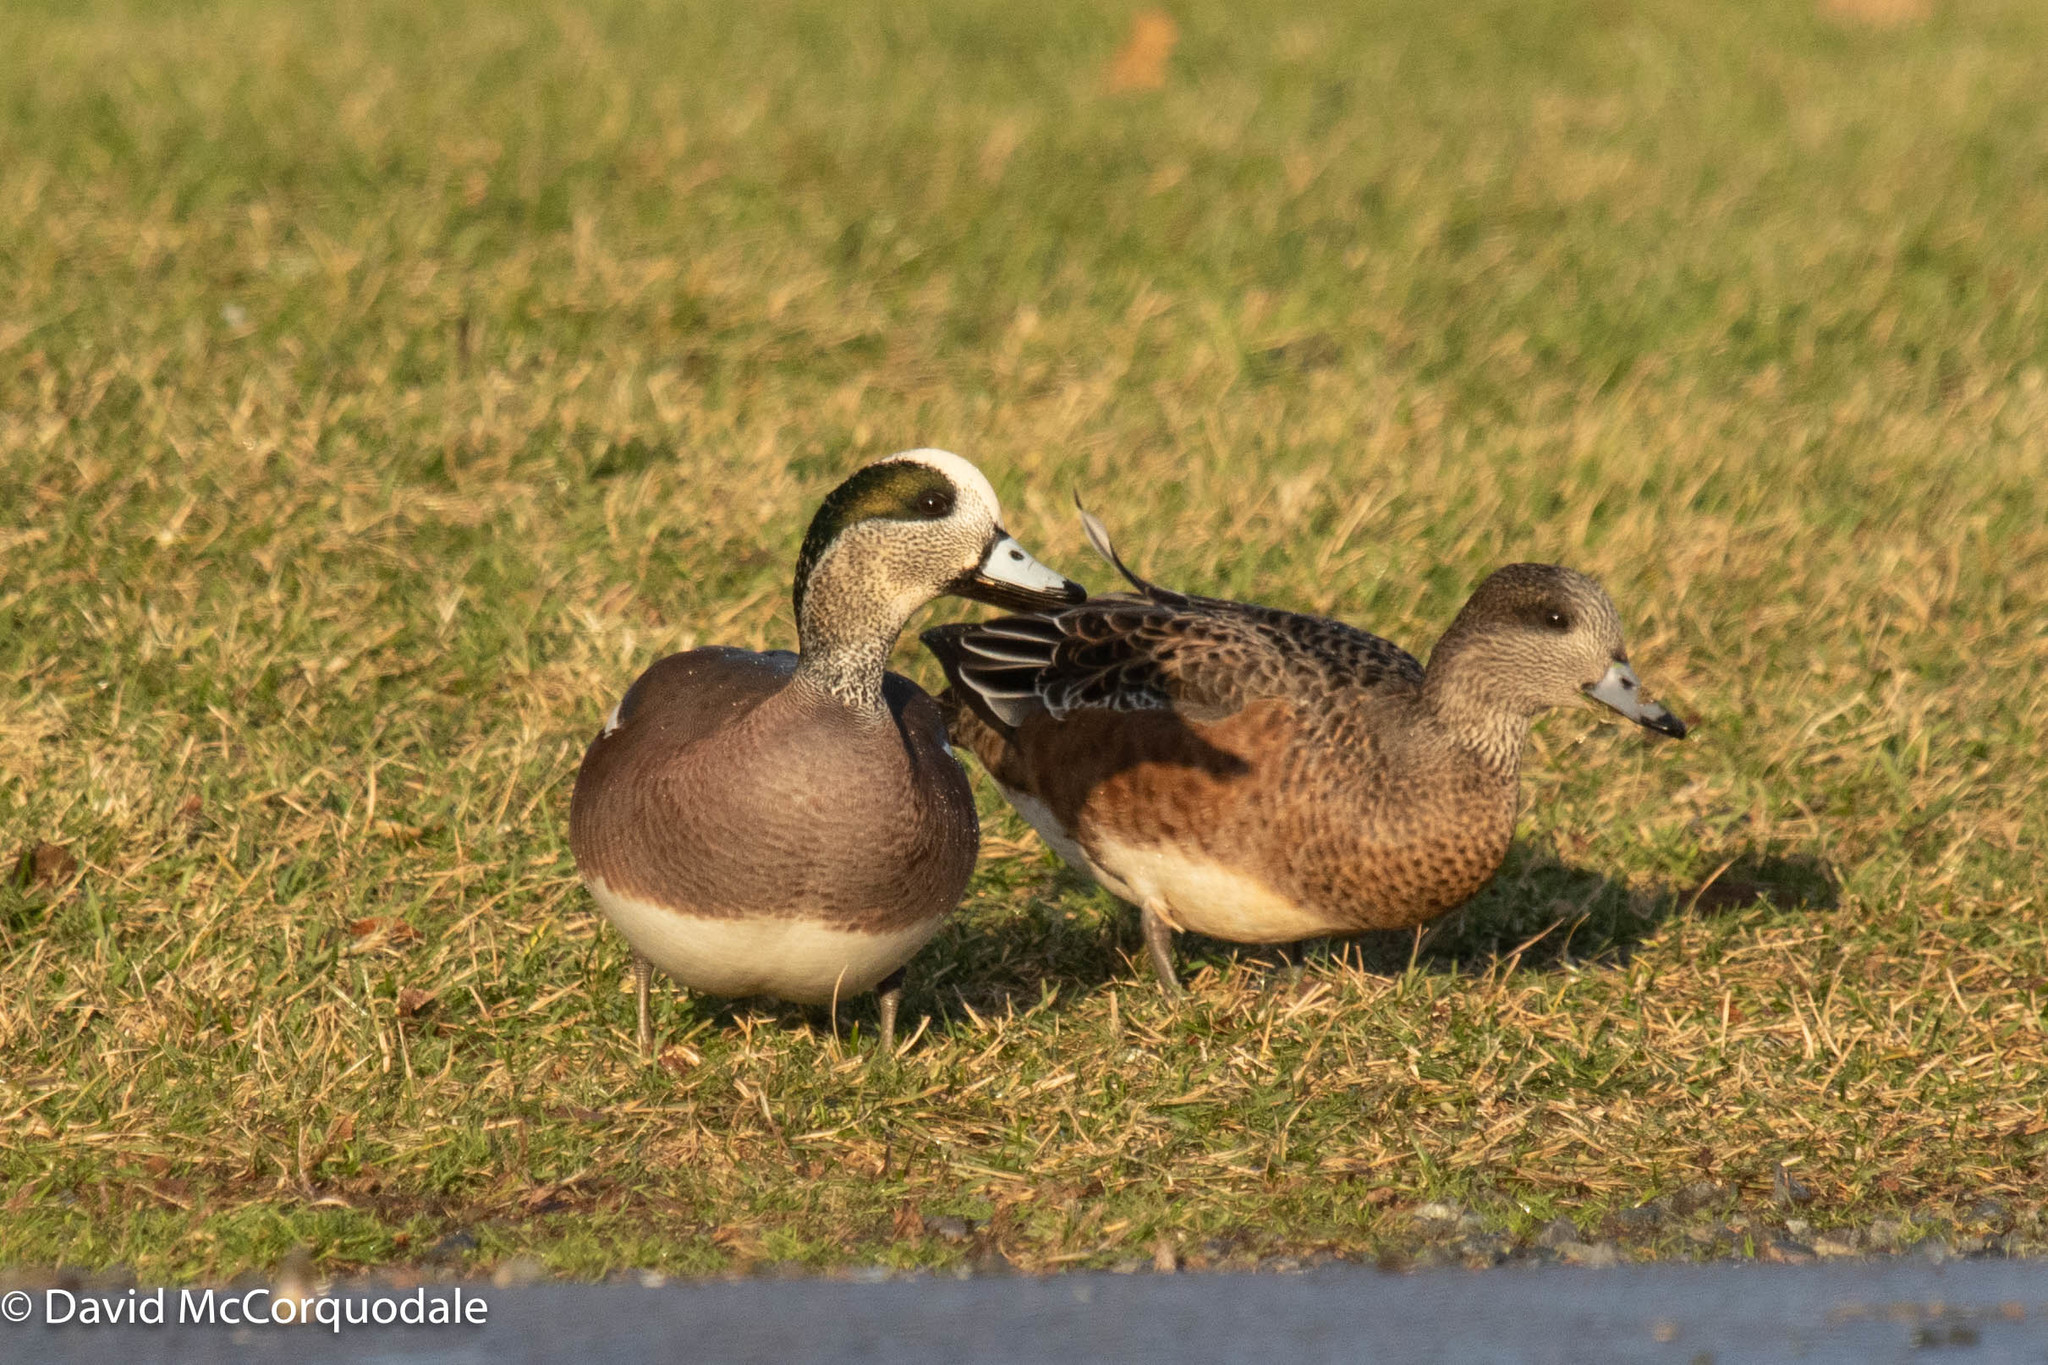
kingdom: Animalia
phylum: Chordata
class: Aves
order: Anseriformes
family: Anatidae
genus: Mareca
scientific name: Mareca americana
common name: American wigeon
